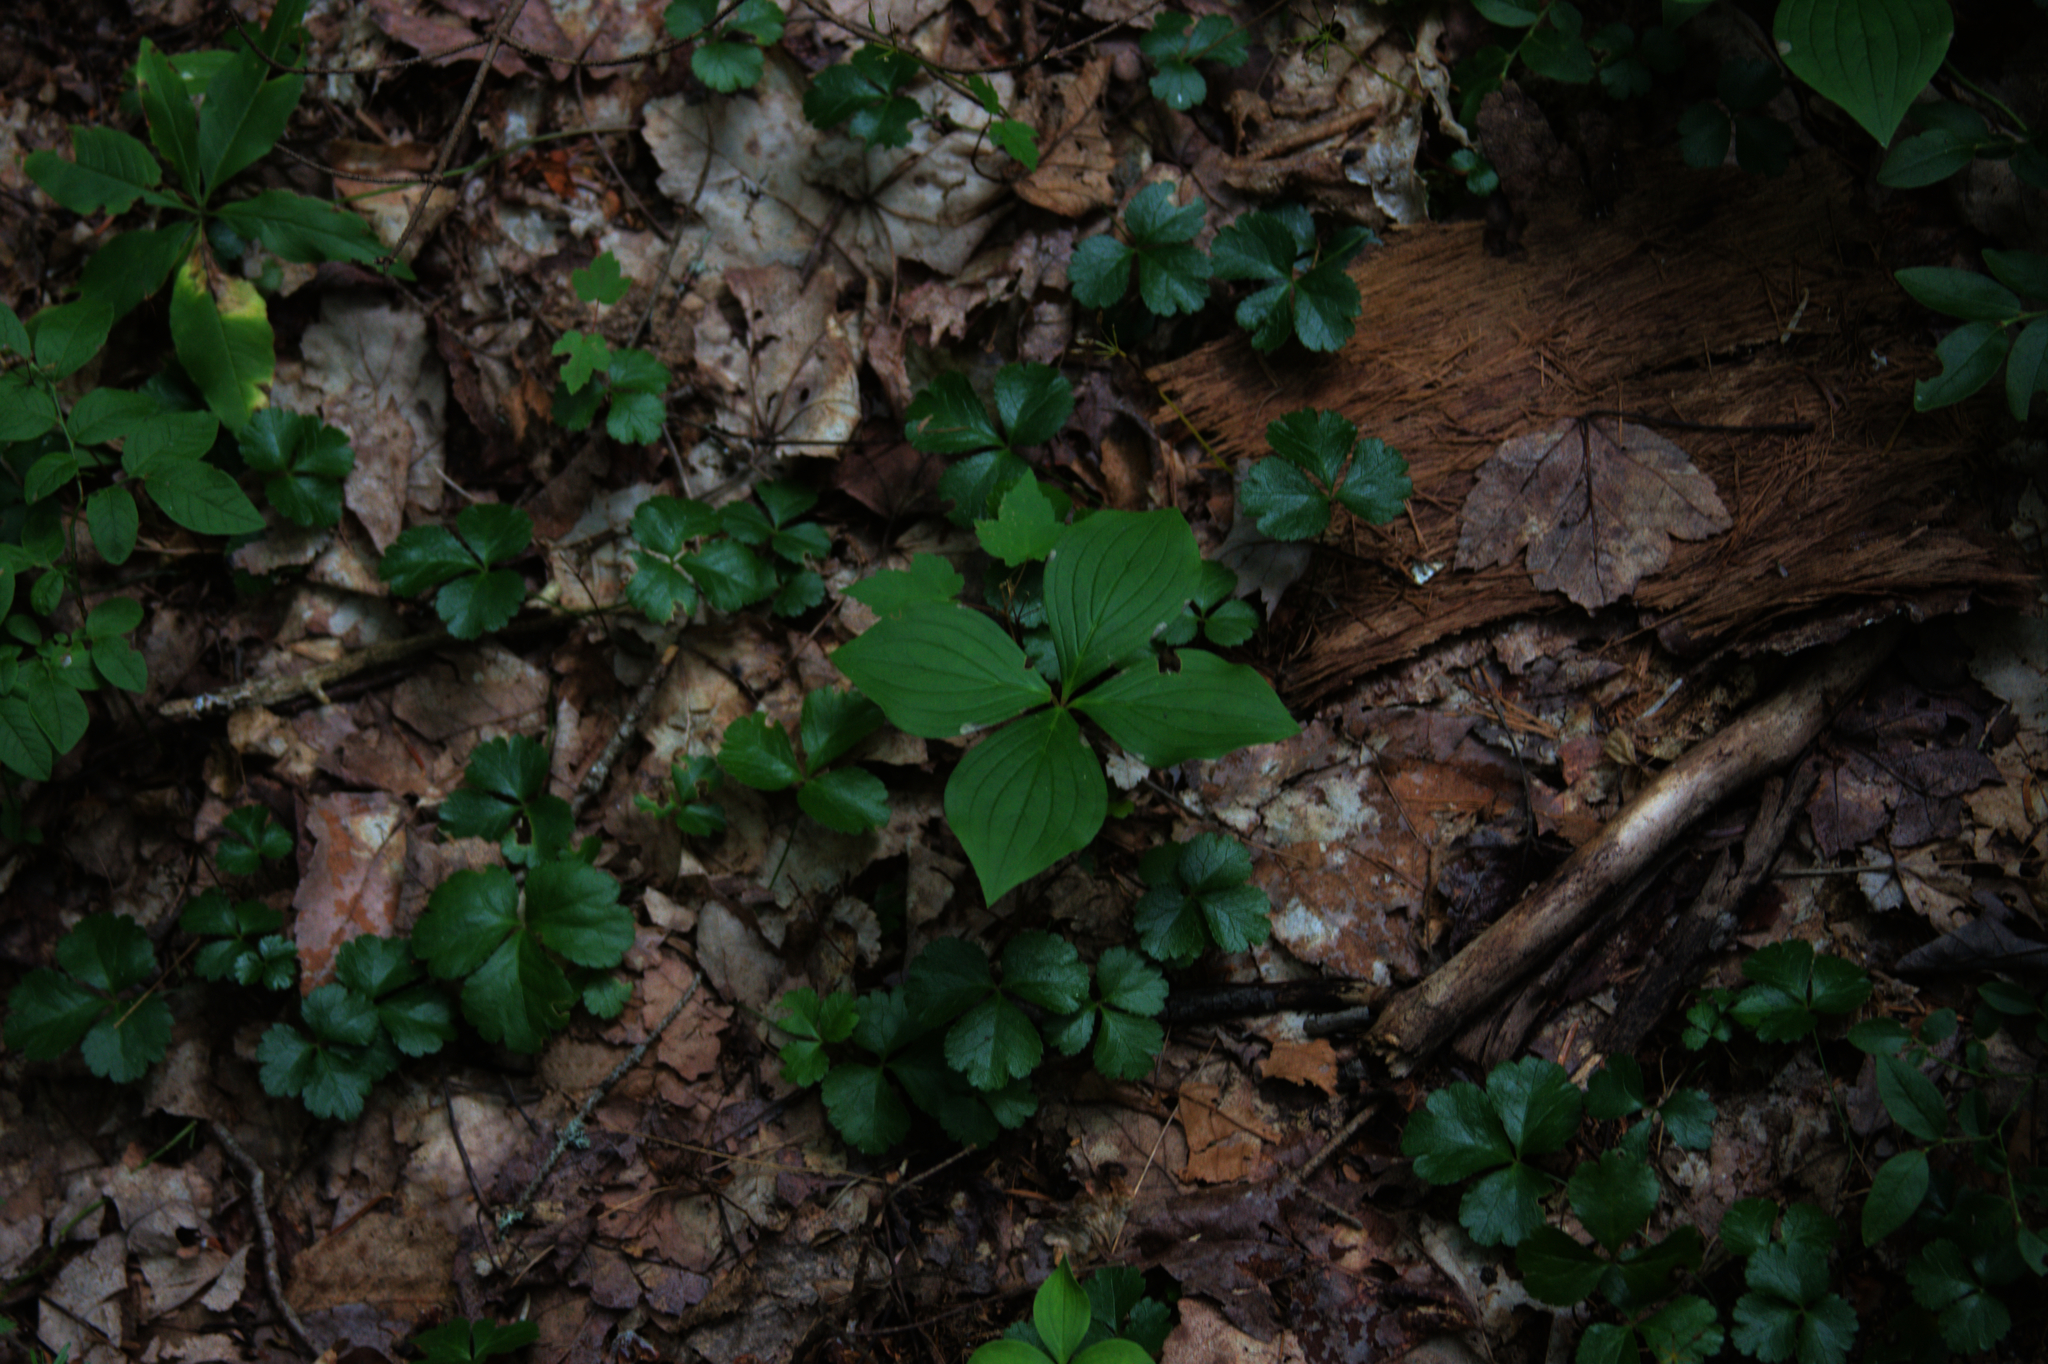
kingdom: Plantae
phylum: Tracheophyta
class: Magnoliopsida
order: Ranunculales
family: Ranunculaceae
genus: Coptis
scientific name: Coptis trifolia
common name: Canker-root
